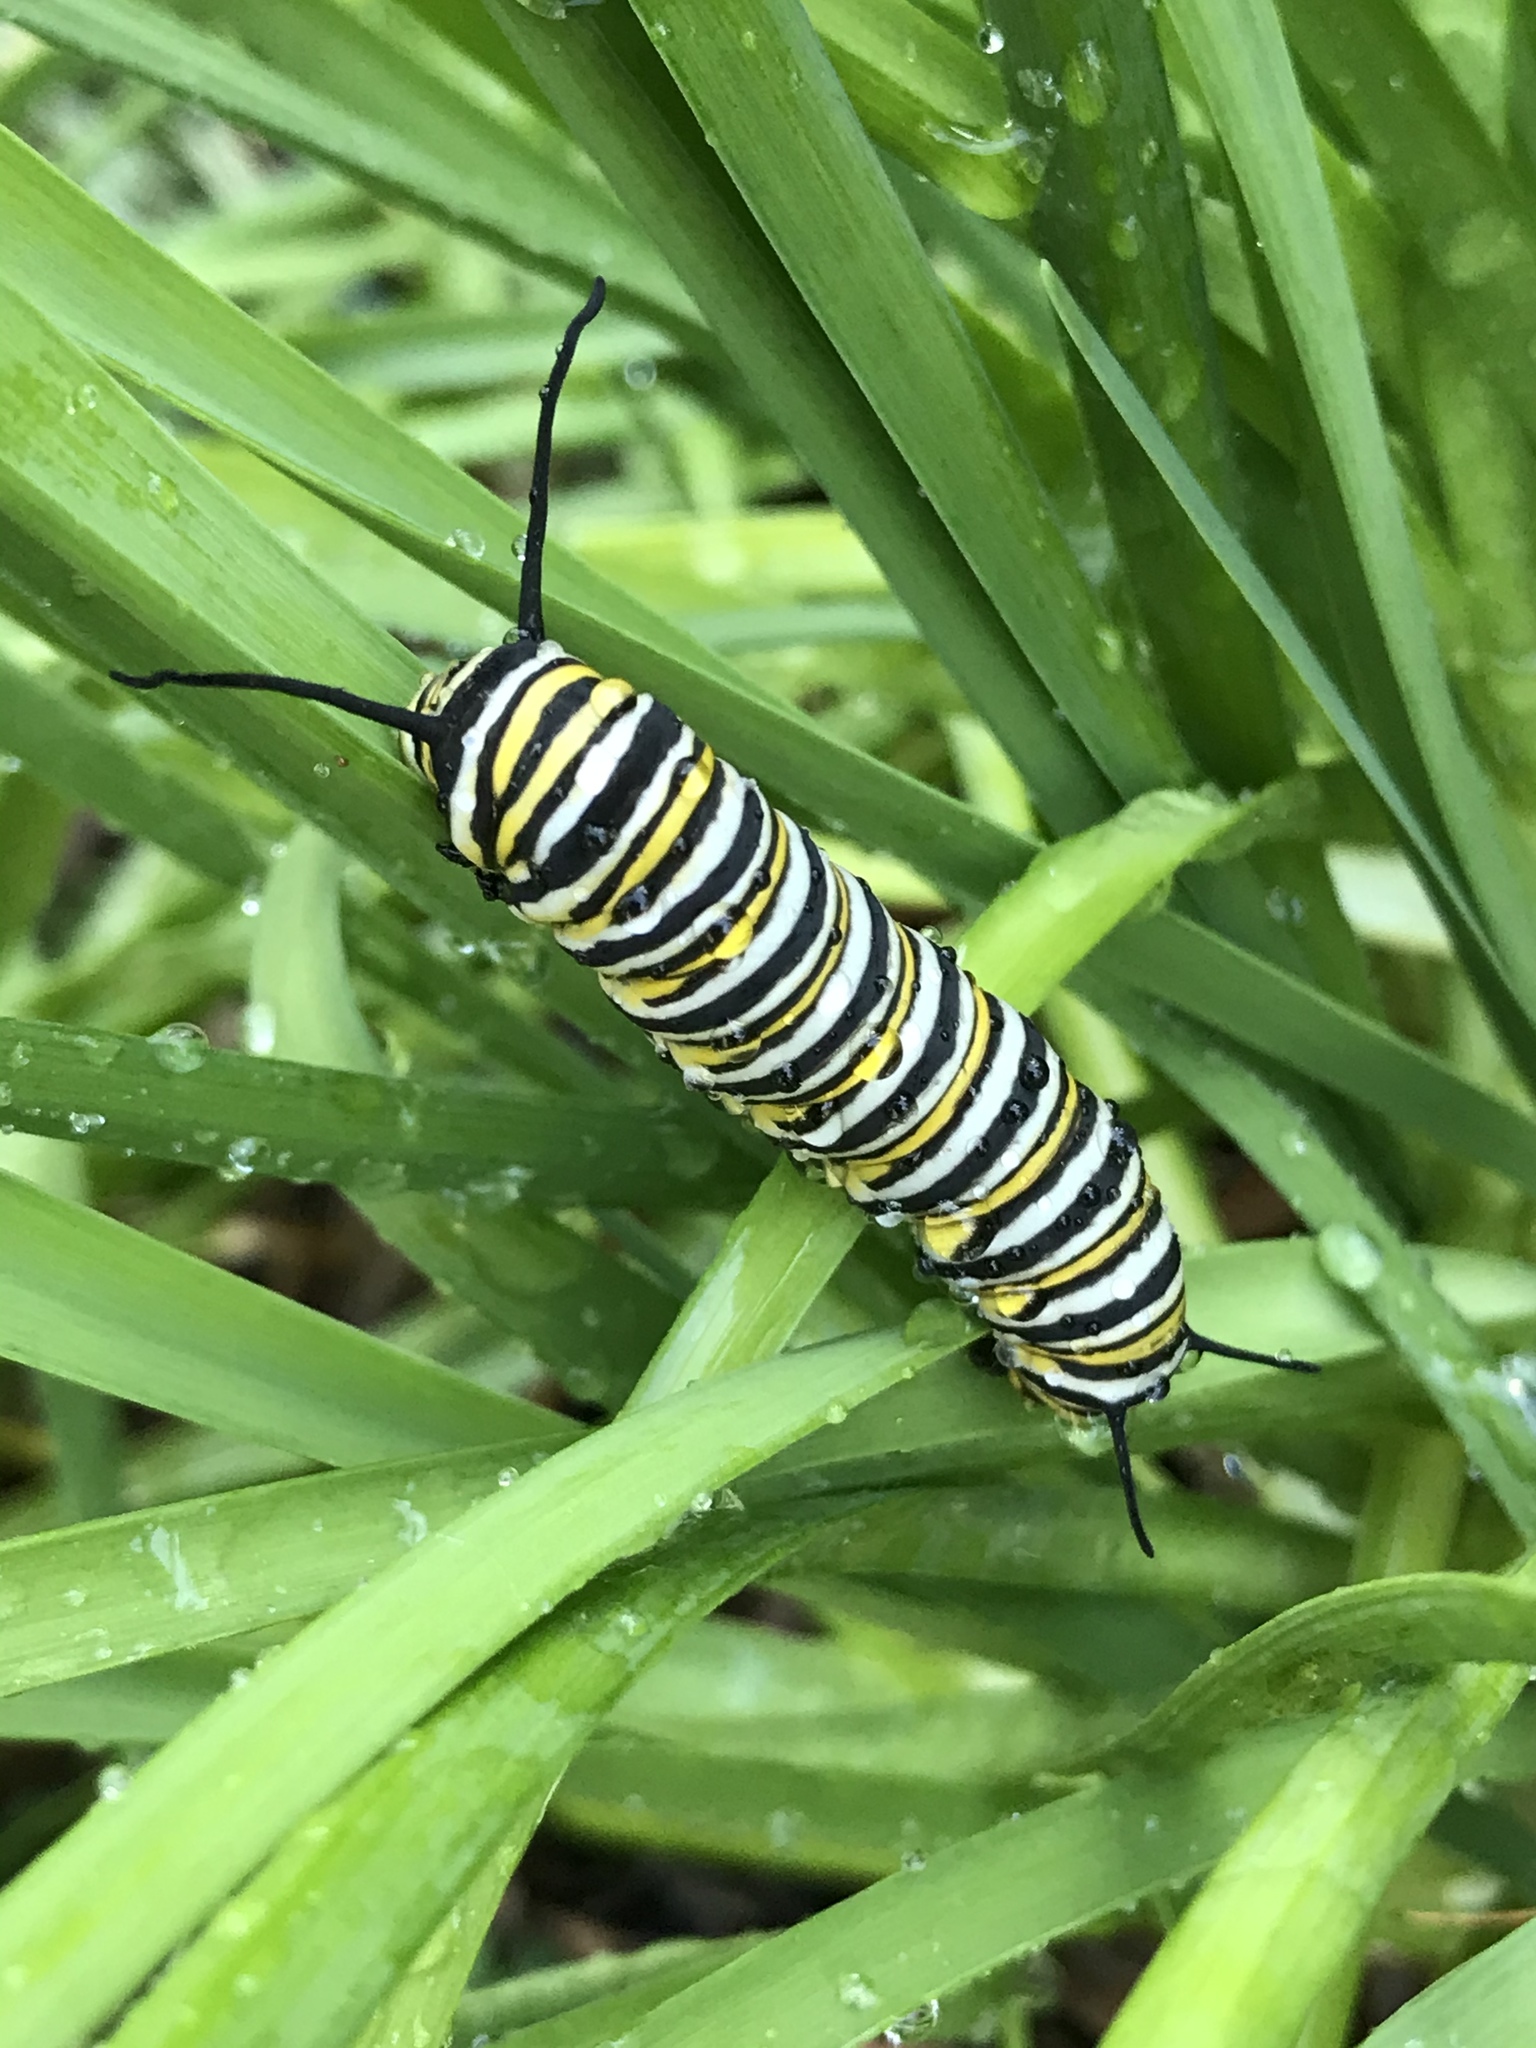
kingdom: Animalia
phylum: Arthropoda
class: Insecta
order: Lepidoptera
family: Nymphalidae
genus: Danaus
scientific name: Danaus plexippus
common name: Monarch
